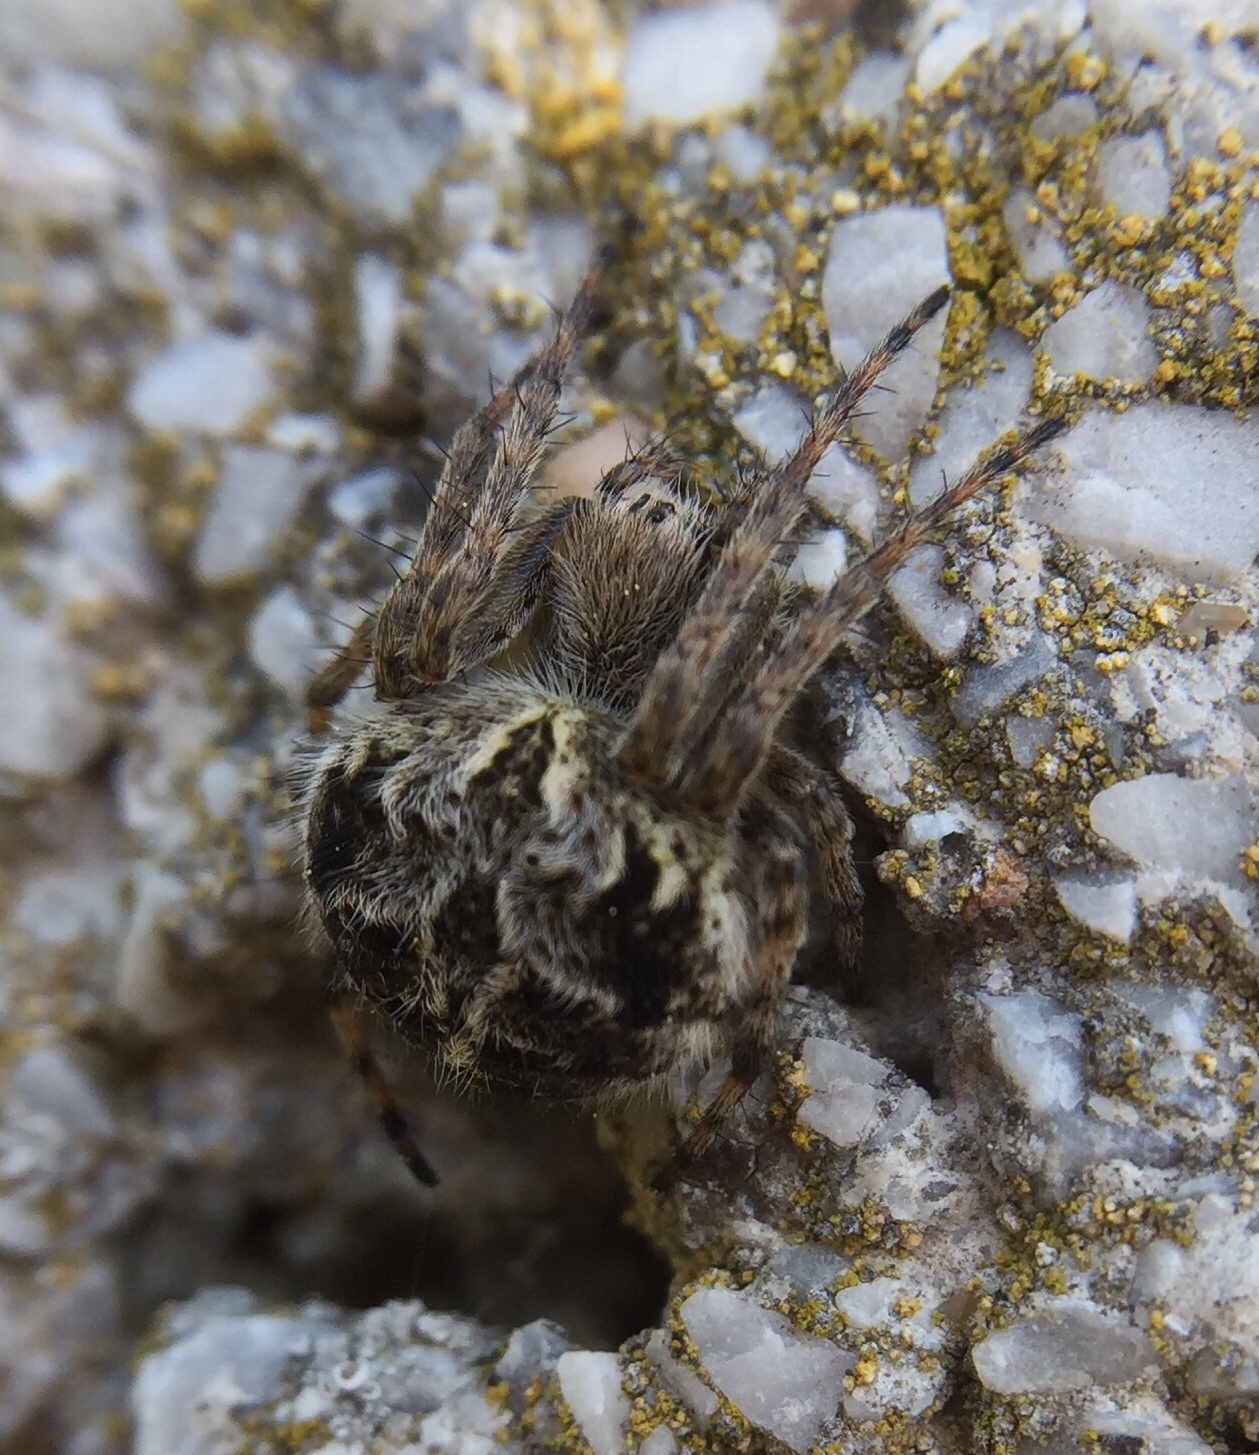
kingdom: Animalia
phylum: Arthropoda
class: Arachnida
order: Araneae
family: Araneidae
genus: Agalenatea
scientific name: Agalenatea redii
